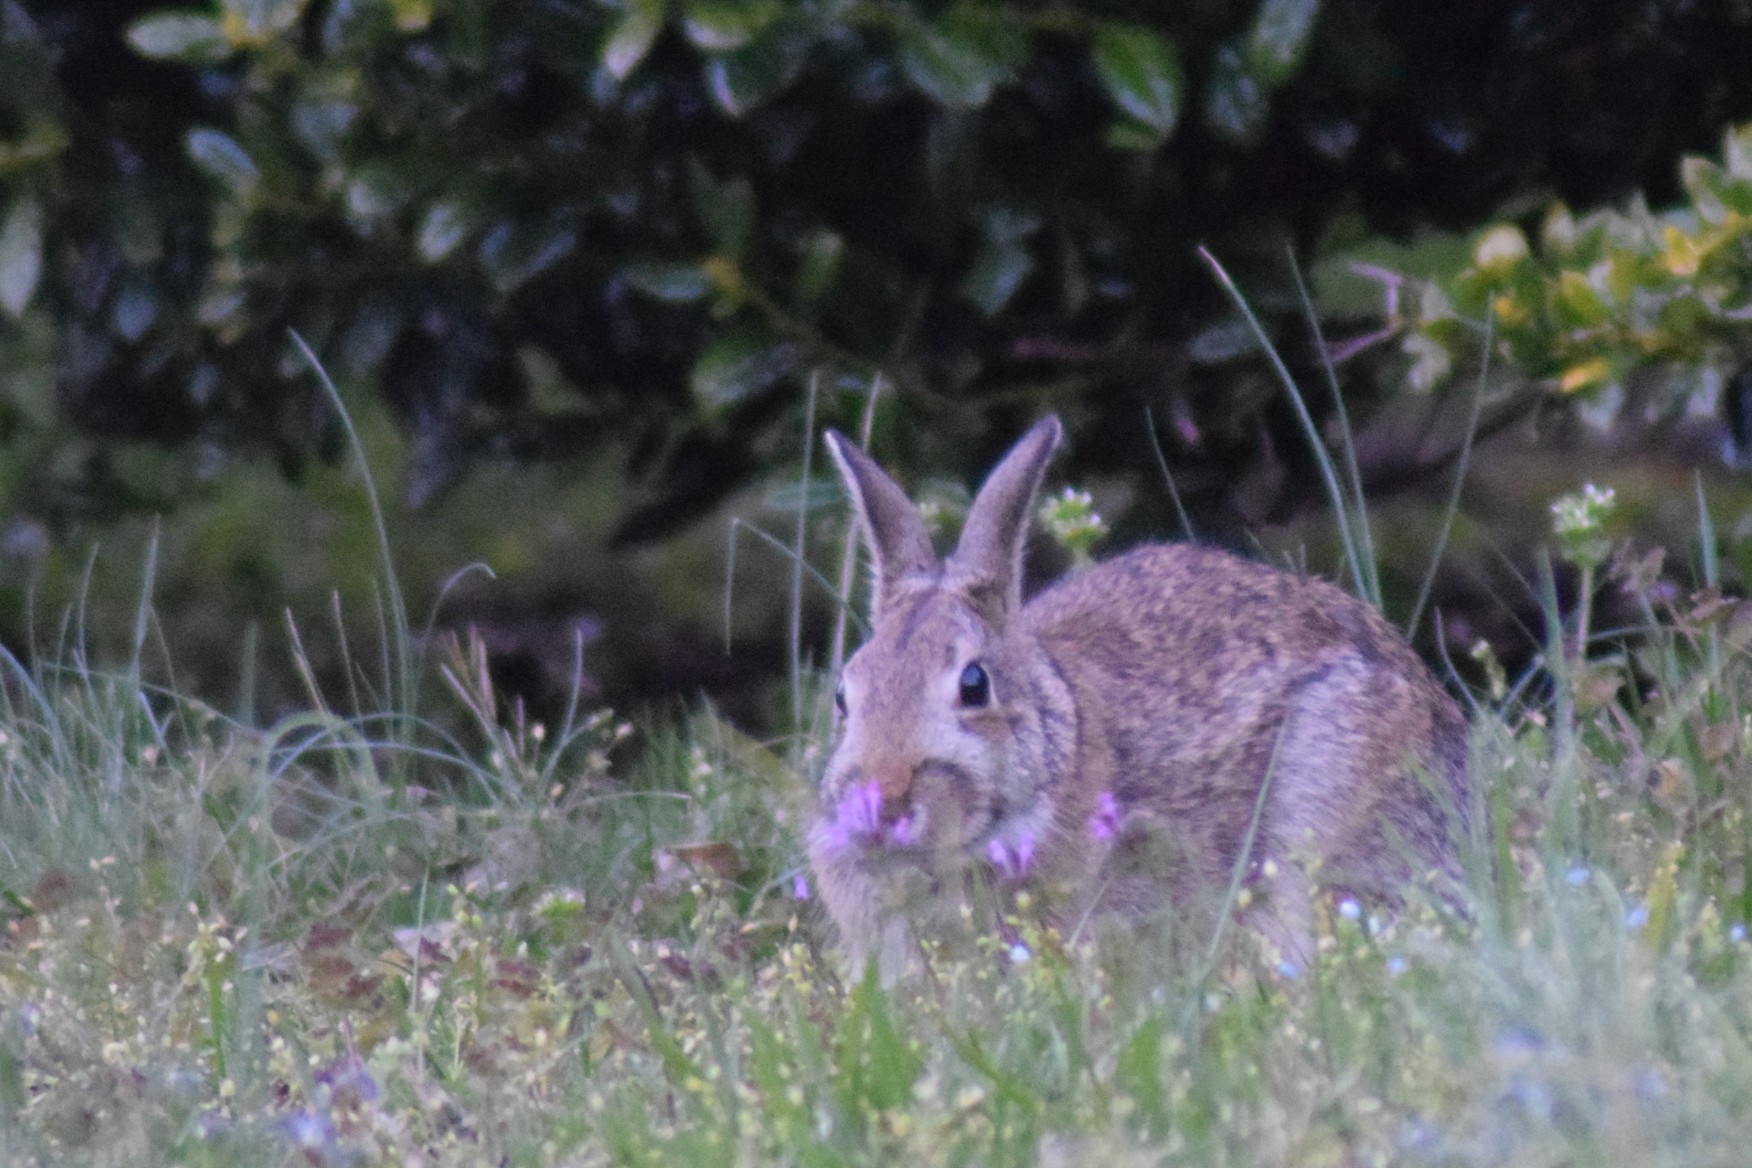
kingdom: Animalia
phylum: Chordata
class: Mammalia
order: Lagomorpha
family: Leporidae
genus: Sylvilagus
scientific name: Sylvilagus floridanus
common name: Eastern cottontail
